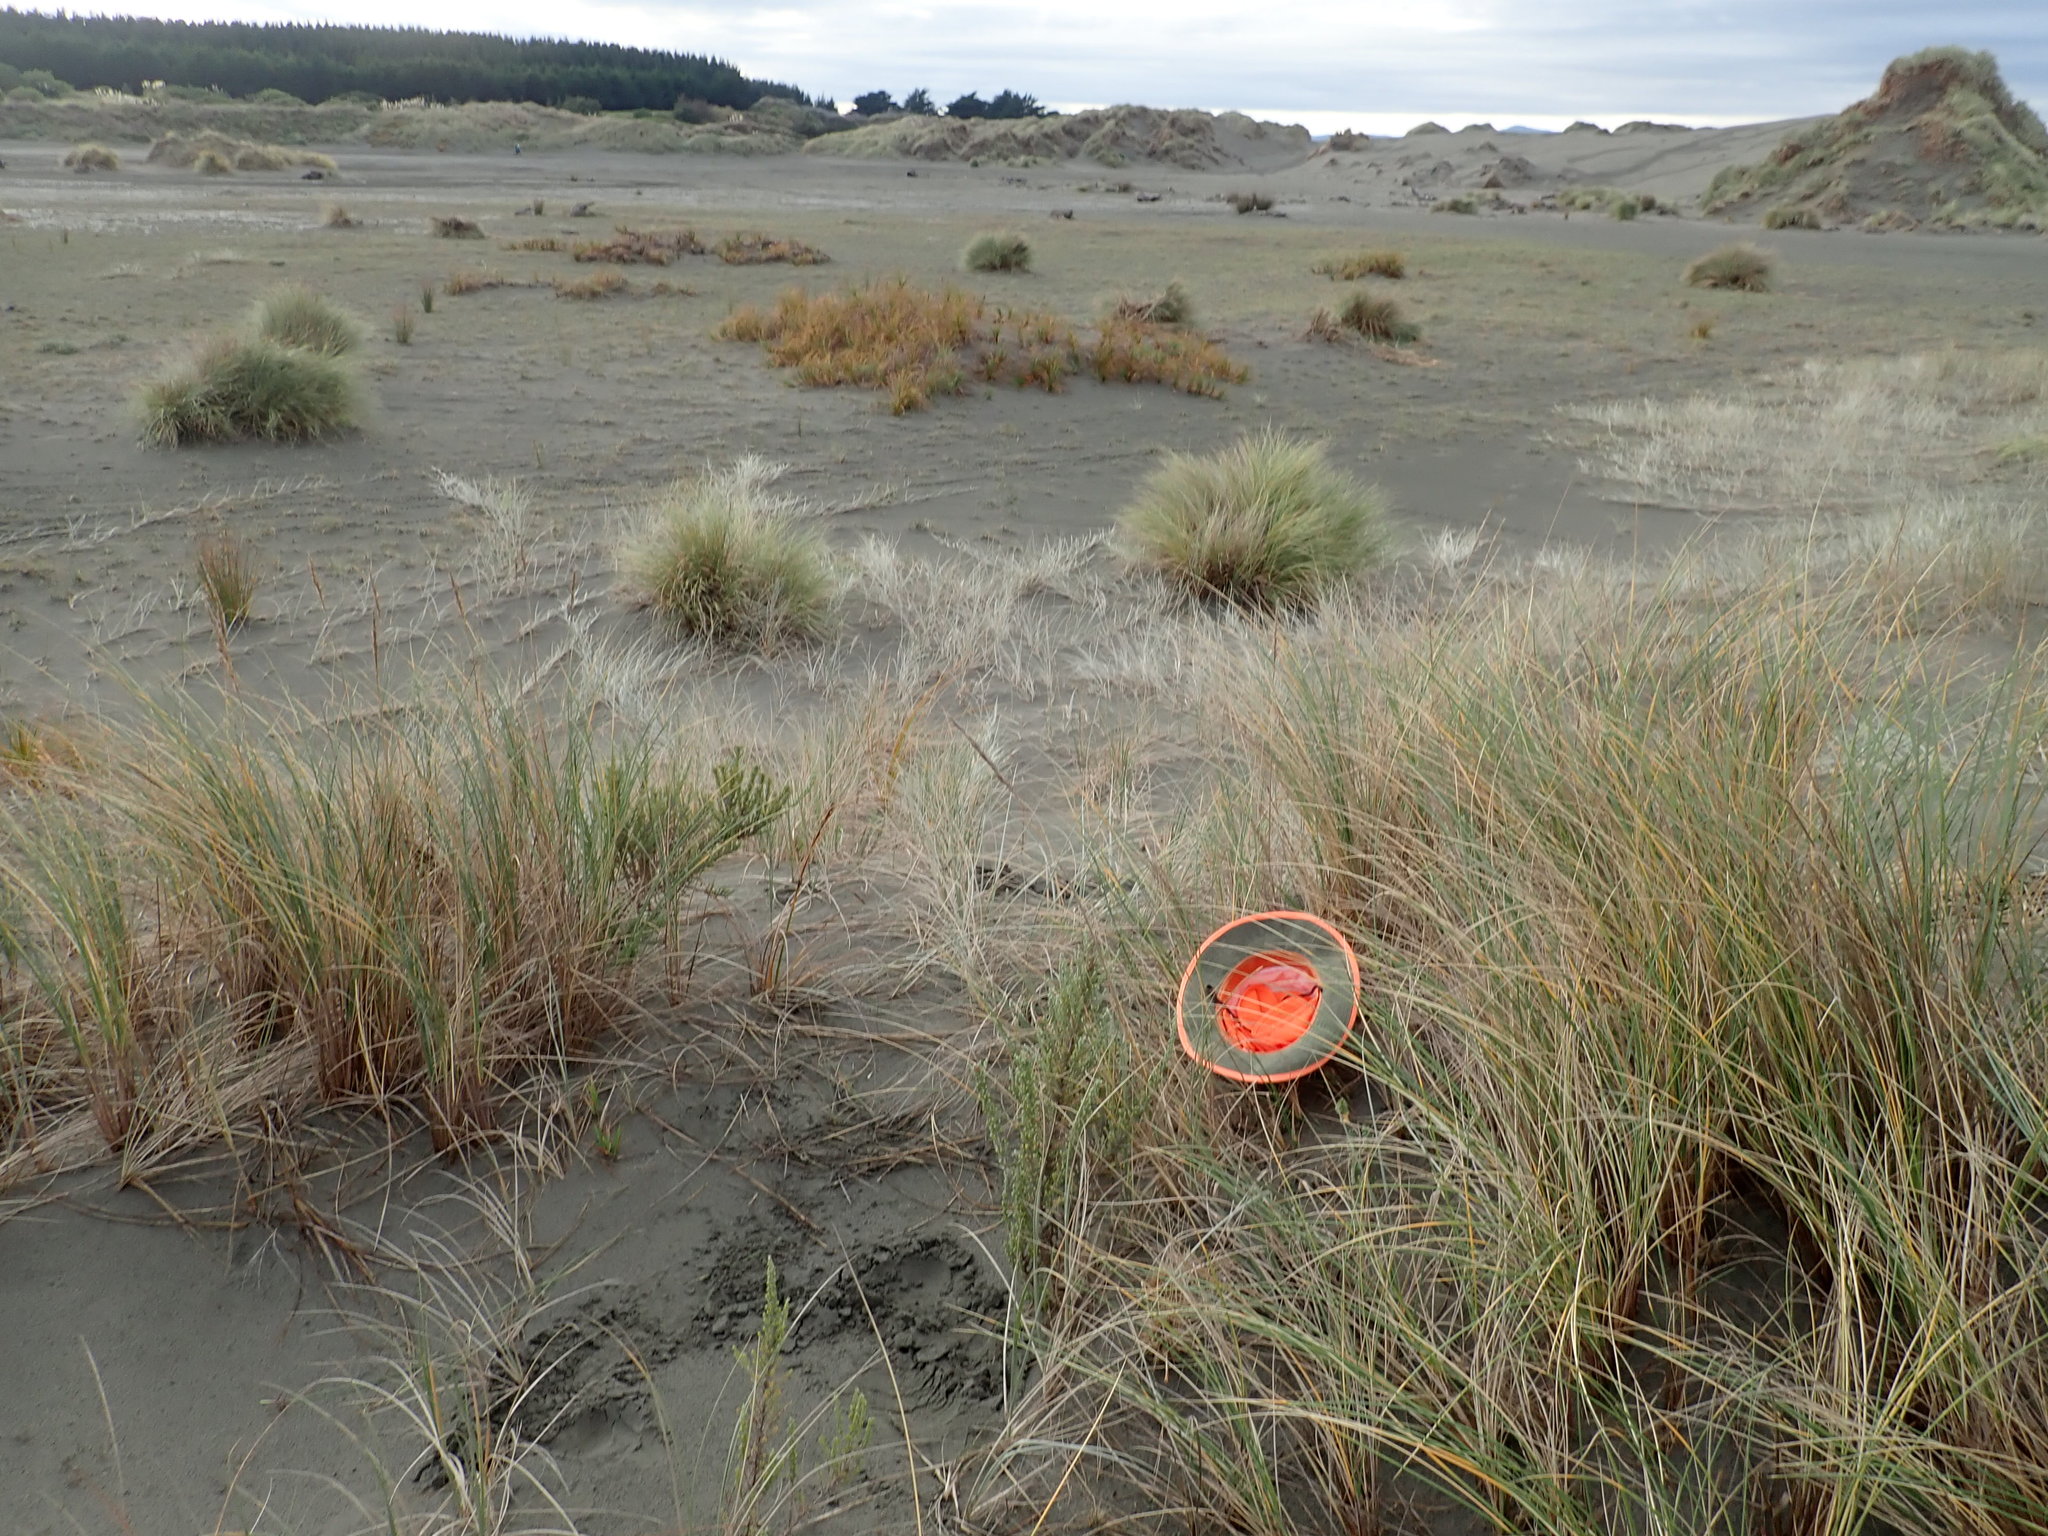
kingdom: Plantae
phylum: Tracheophyta
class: Magnoliopsida
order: Malvales
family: Thymelaeaceae
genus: Pimelea
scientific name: Pimelea villosa
